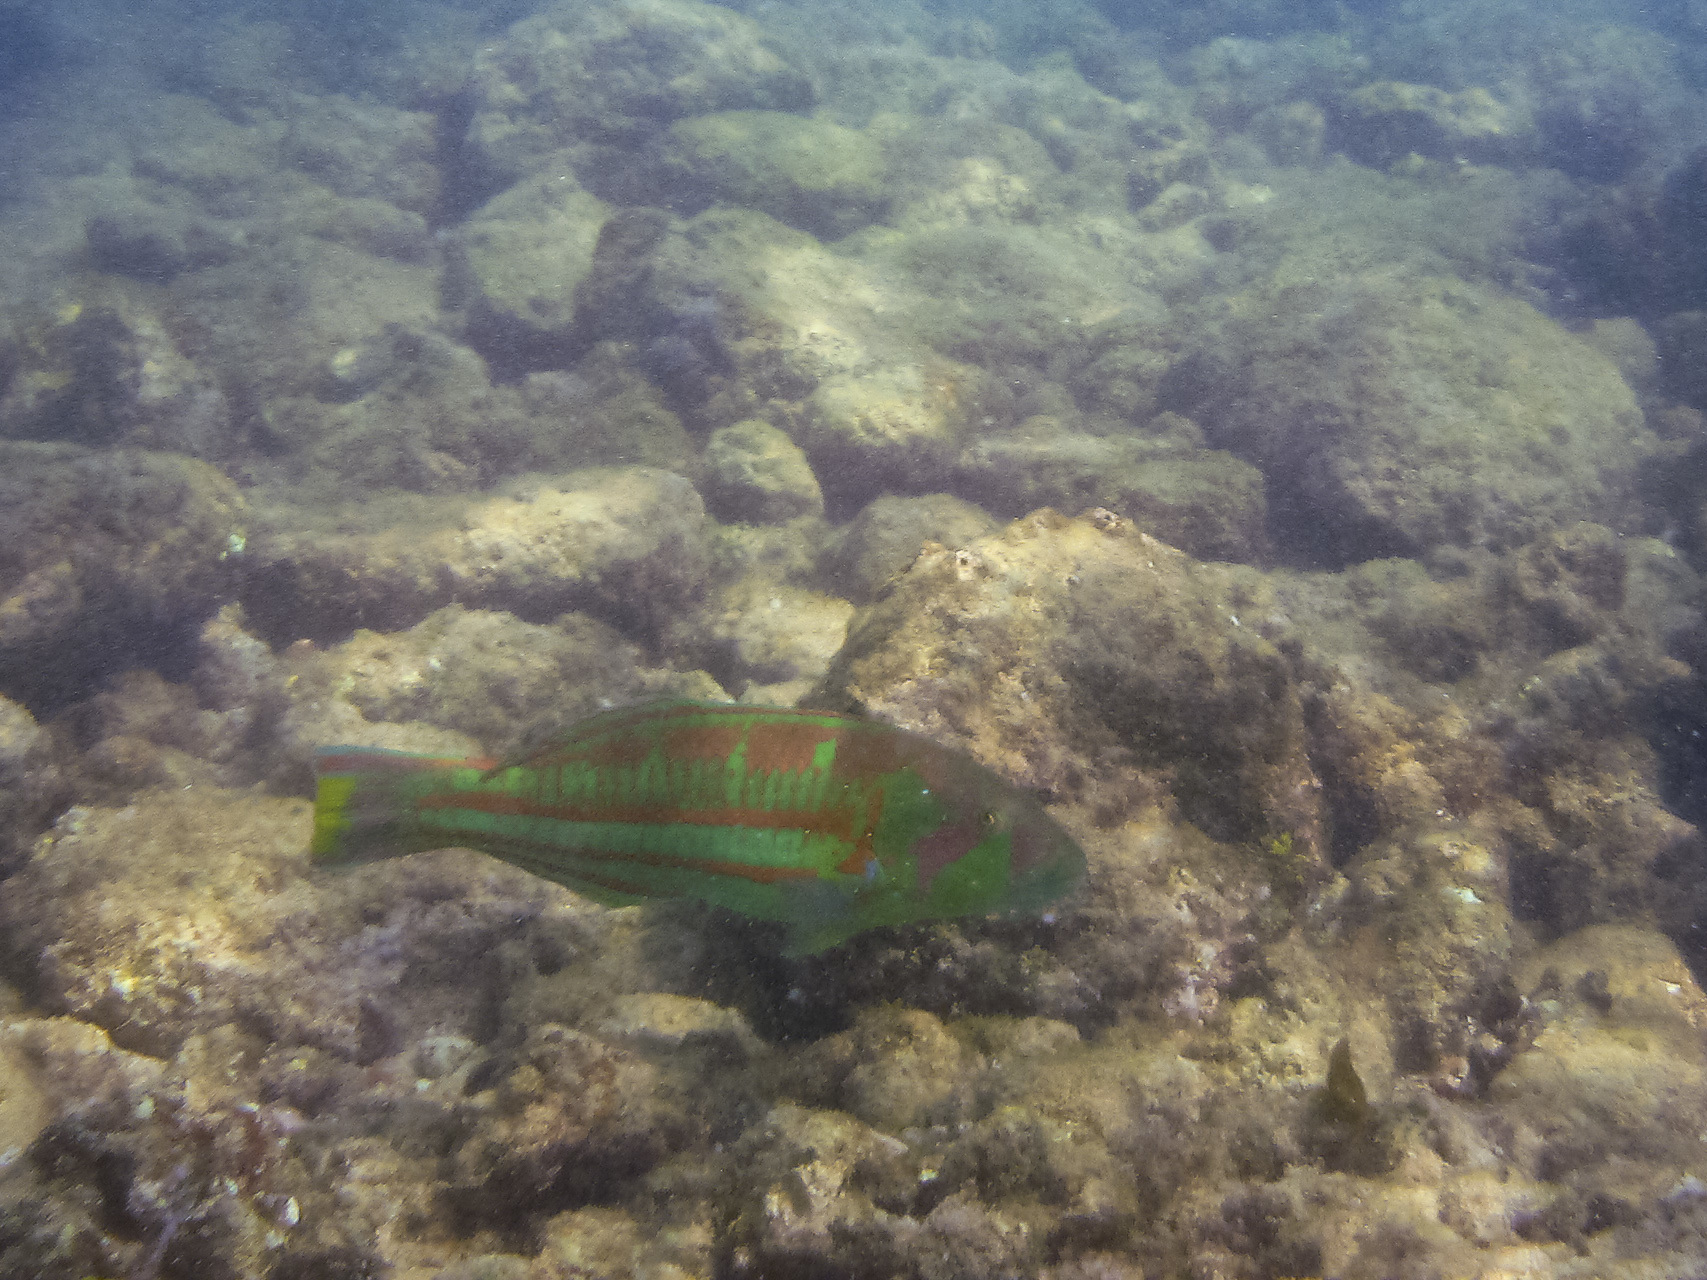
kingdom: Animalia
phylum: Chordata
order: Perciformes
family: Labridae
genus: Thalassoma
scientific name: Thalassoma purpureum
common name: Parrotfish
